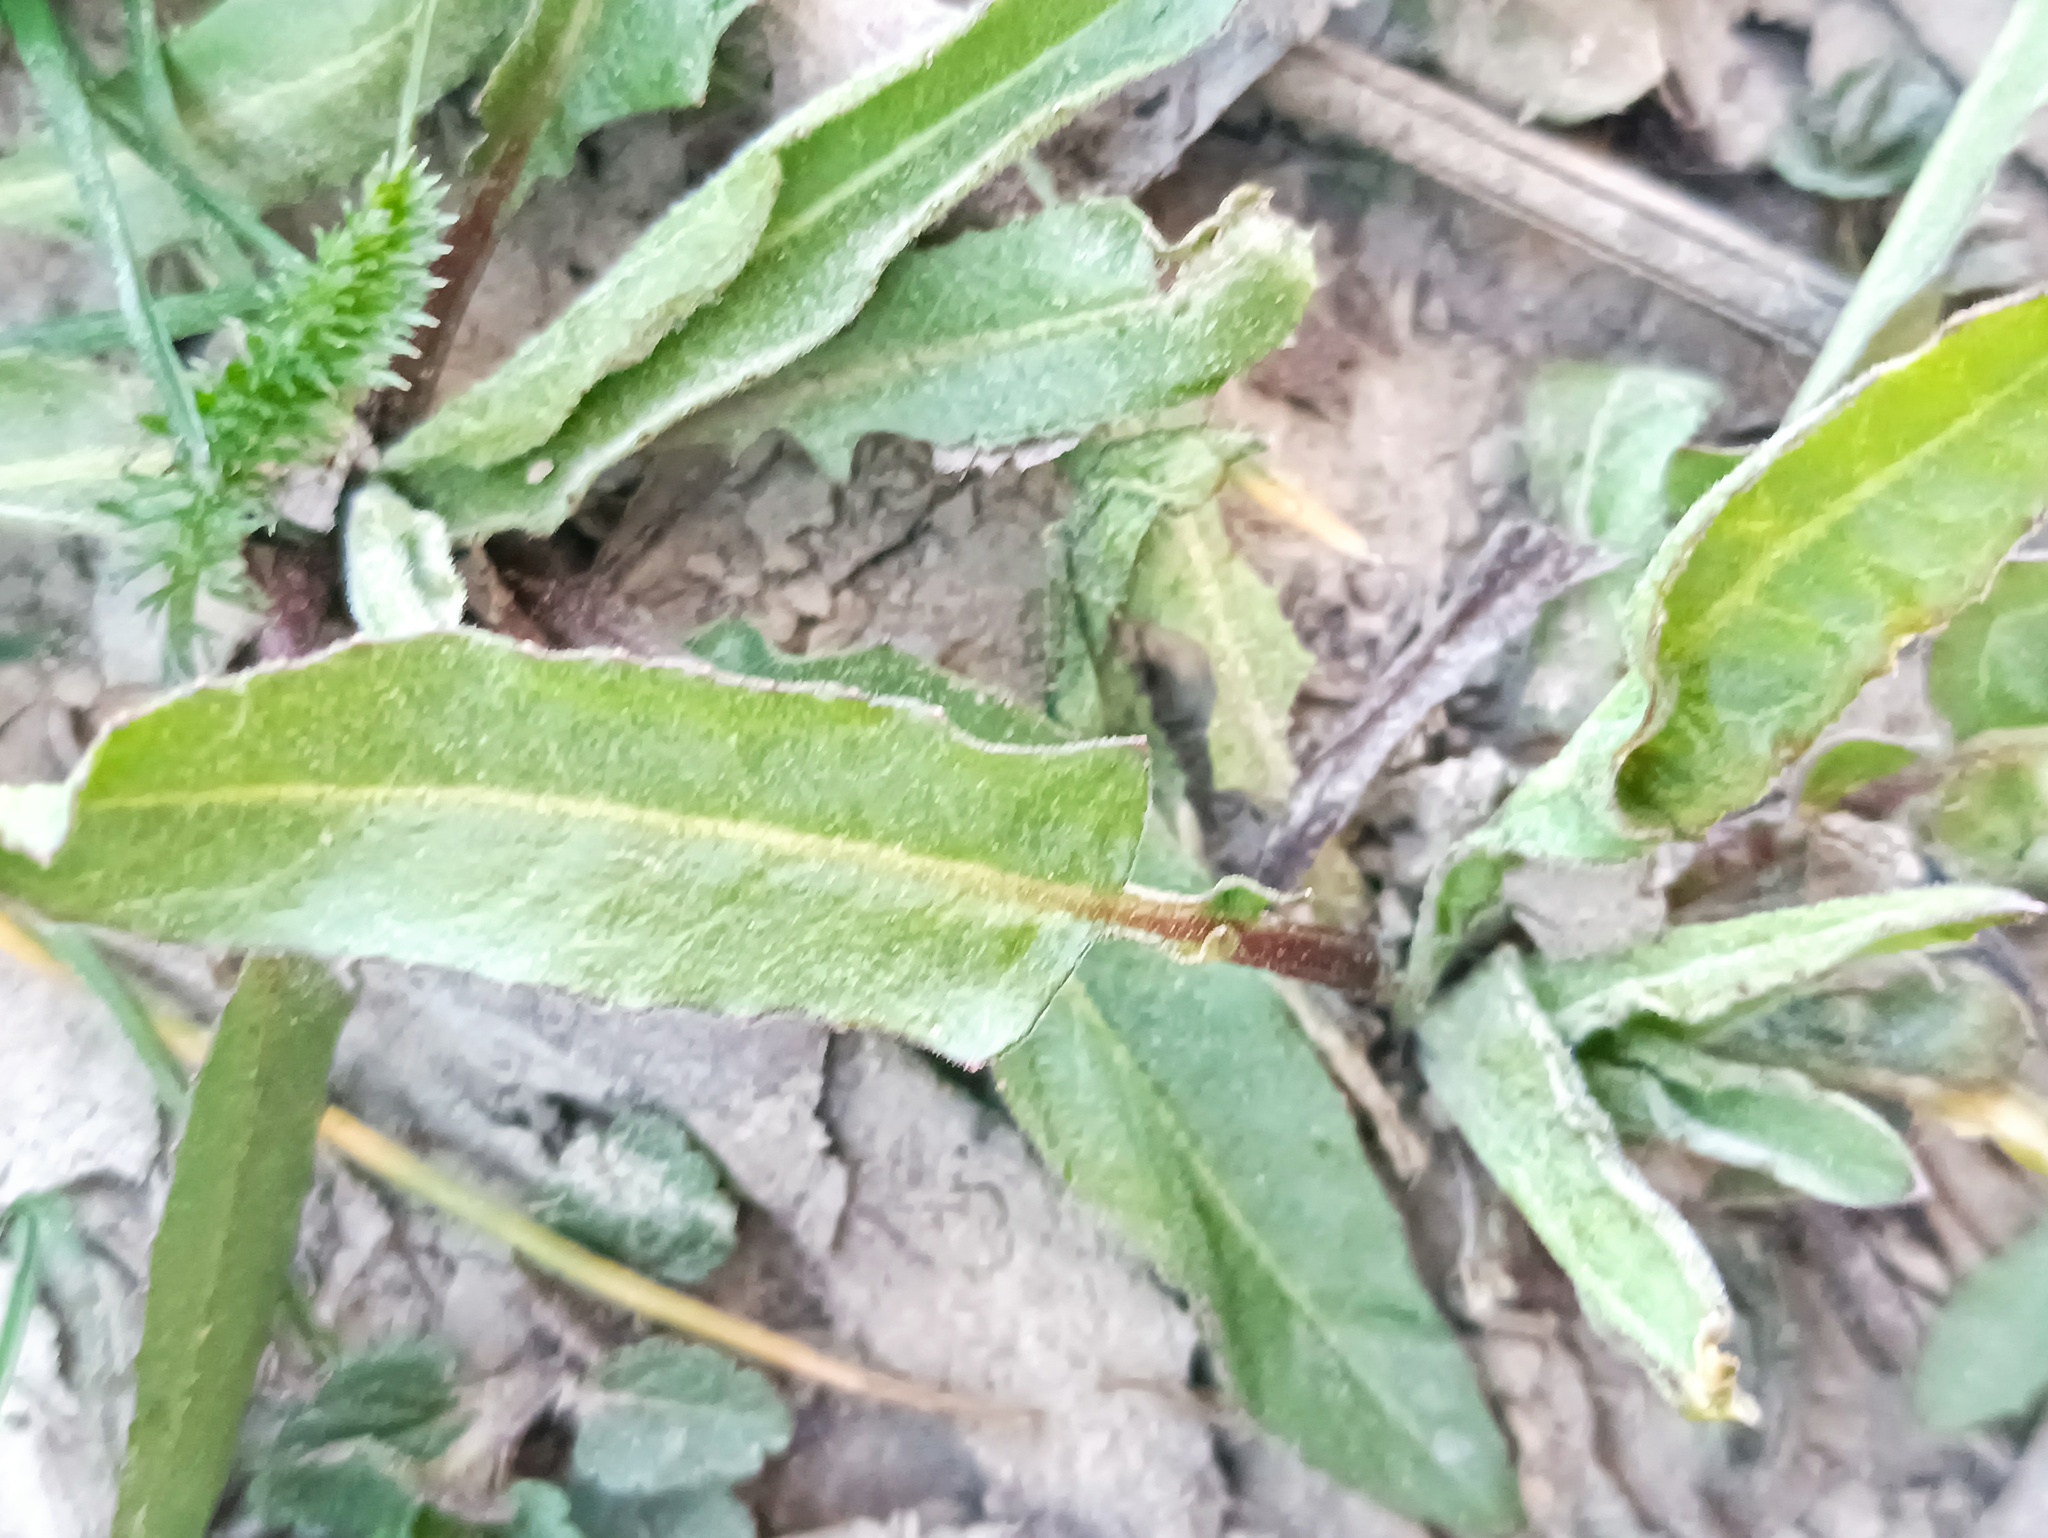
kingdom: Plantae
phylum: Tracheophyta
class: Magnoliopsida
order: Brassicales
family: Brassicaceae
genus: Bunias
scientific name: Bunias orientalis
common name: Warty-cabbage
